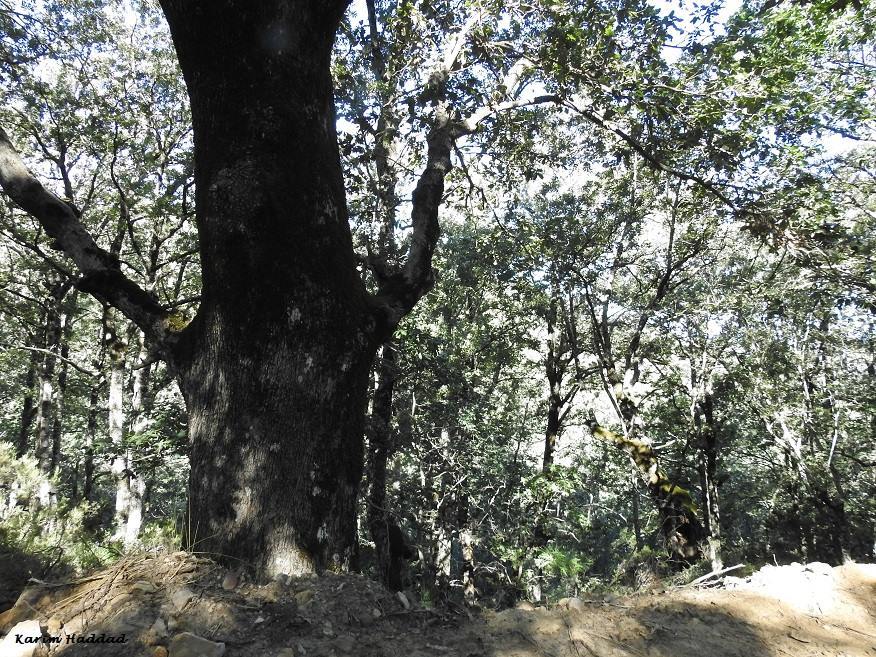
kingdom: Plantae
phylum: Tracheophyta
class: Magnoliopsida
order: Fagales
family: Fagaceae
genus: Quercus
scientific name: Quercus
